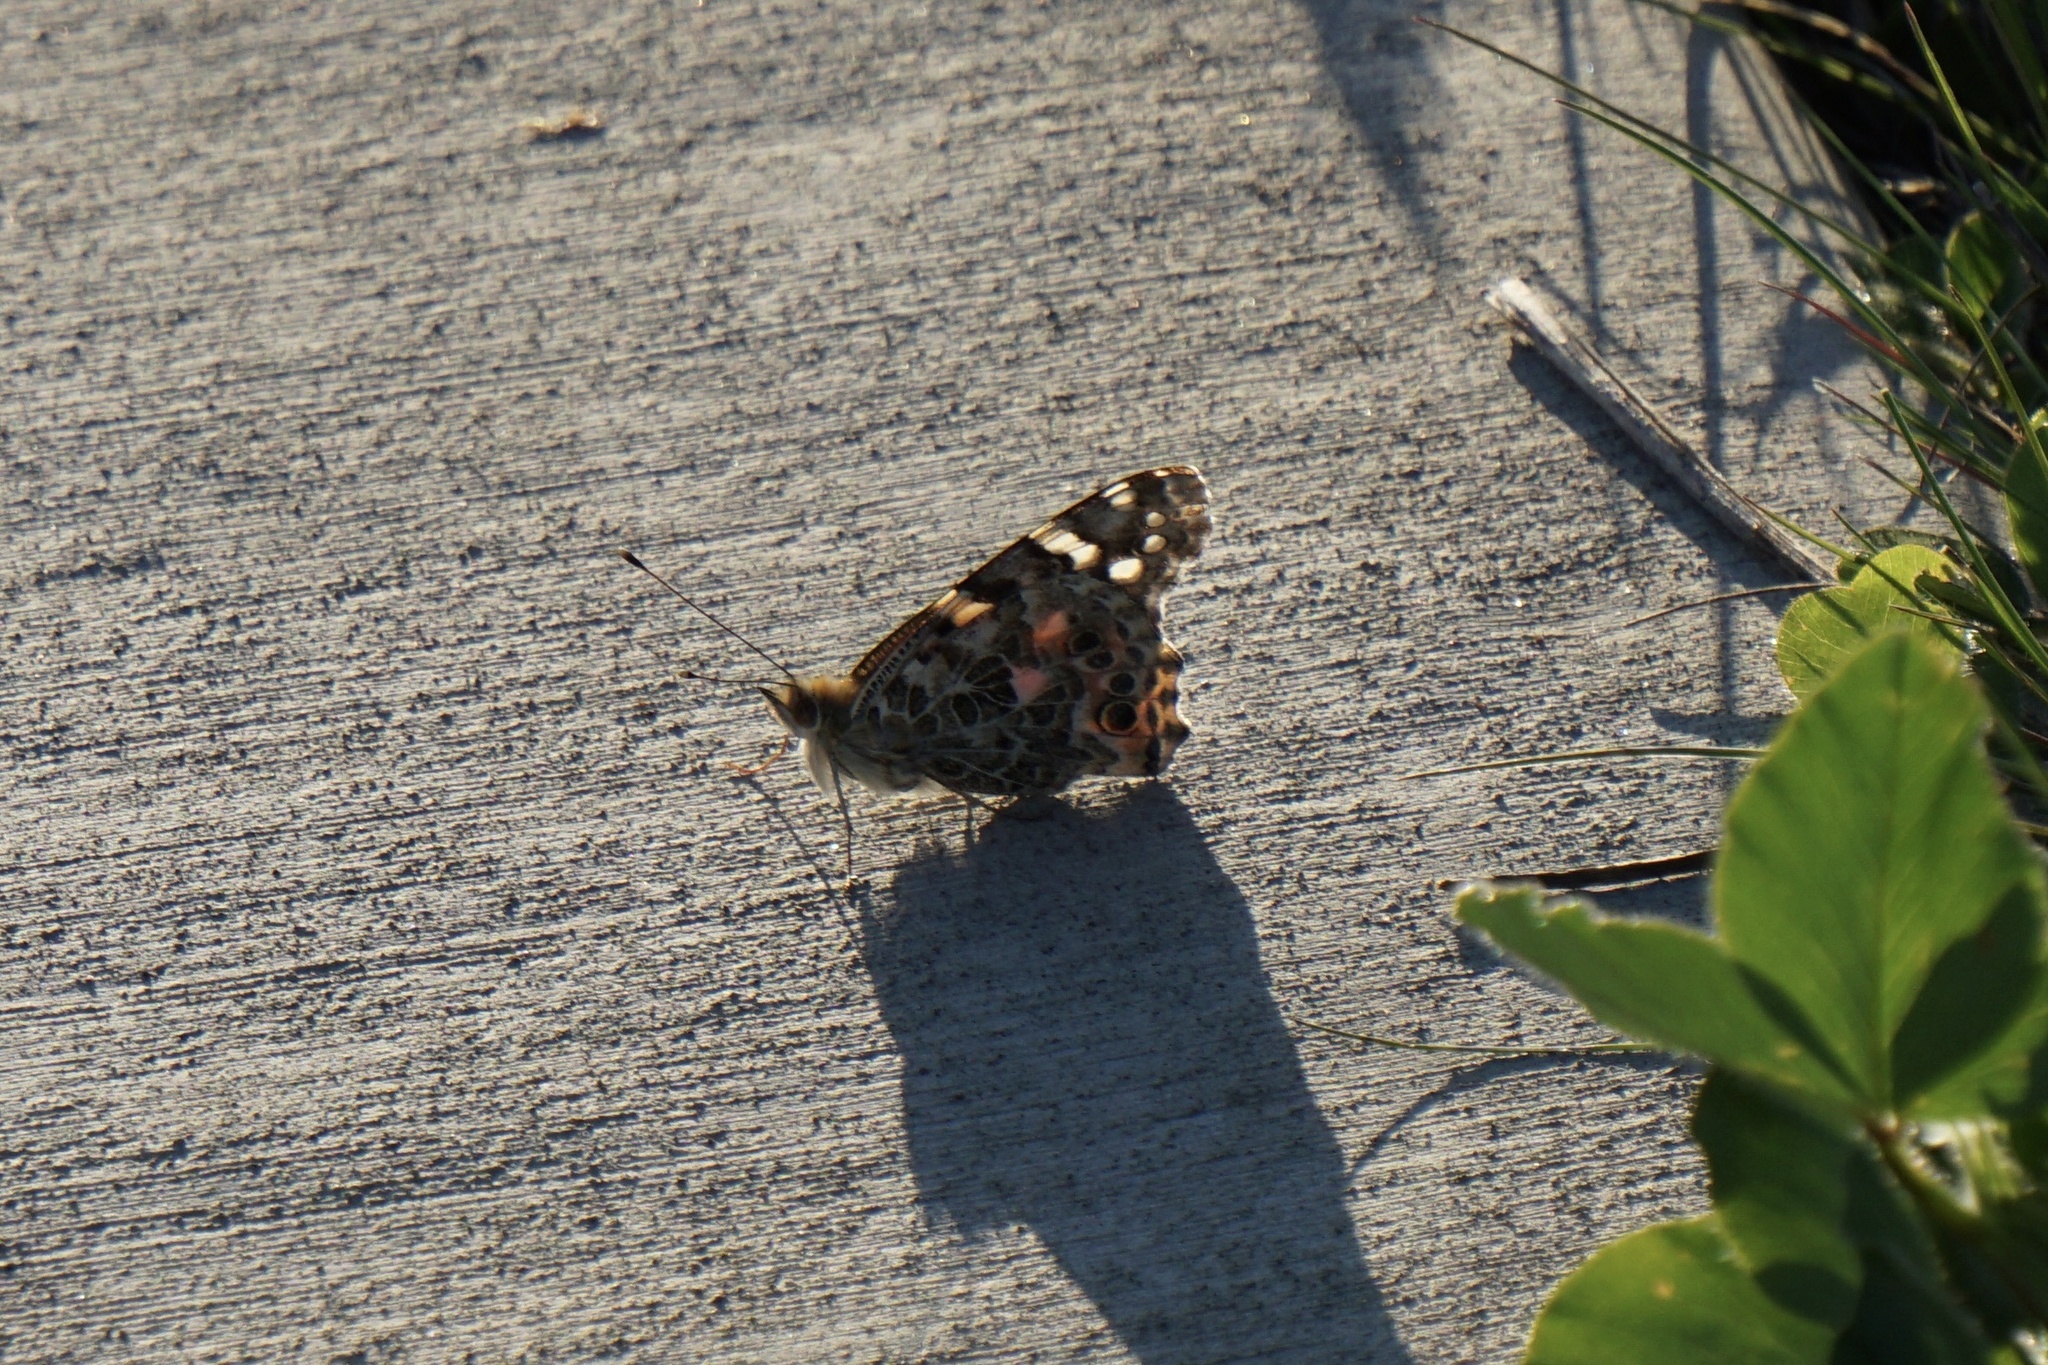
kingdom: Animalia
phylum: Arthropoda
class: Insecta
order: Lepidoptera
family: Nymphalidae
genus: Vanessa
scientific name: Vanessa cardui
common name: Painted lady
